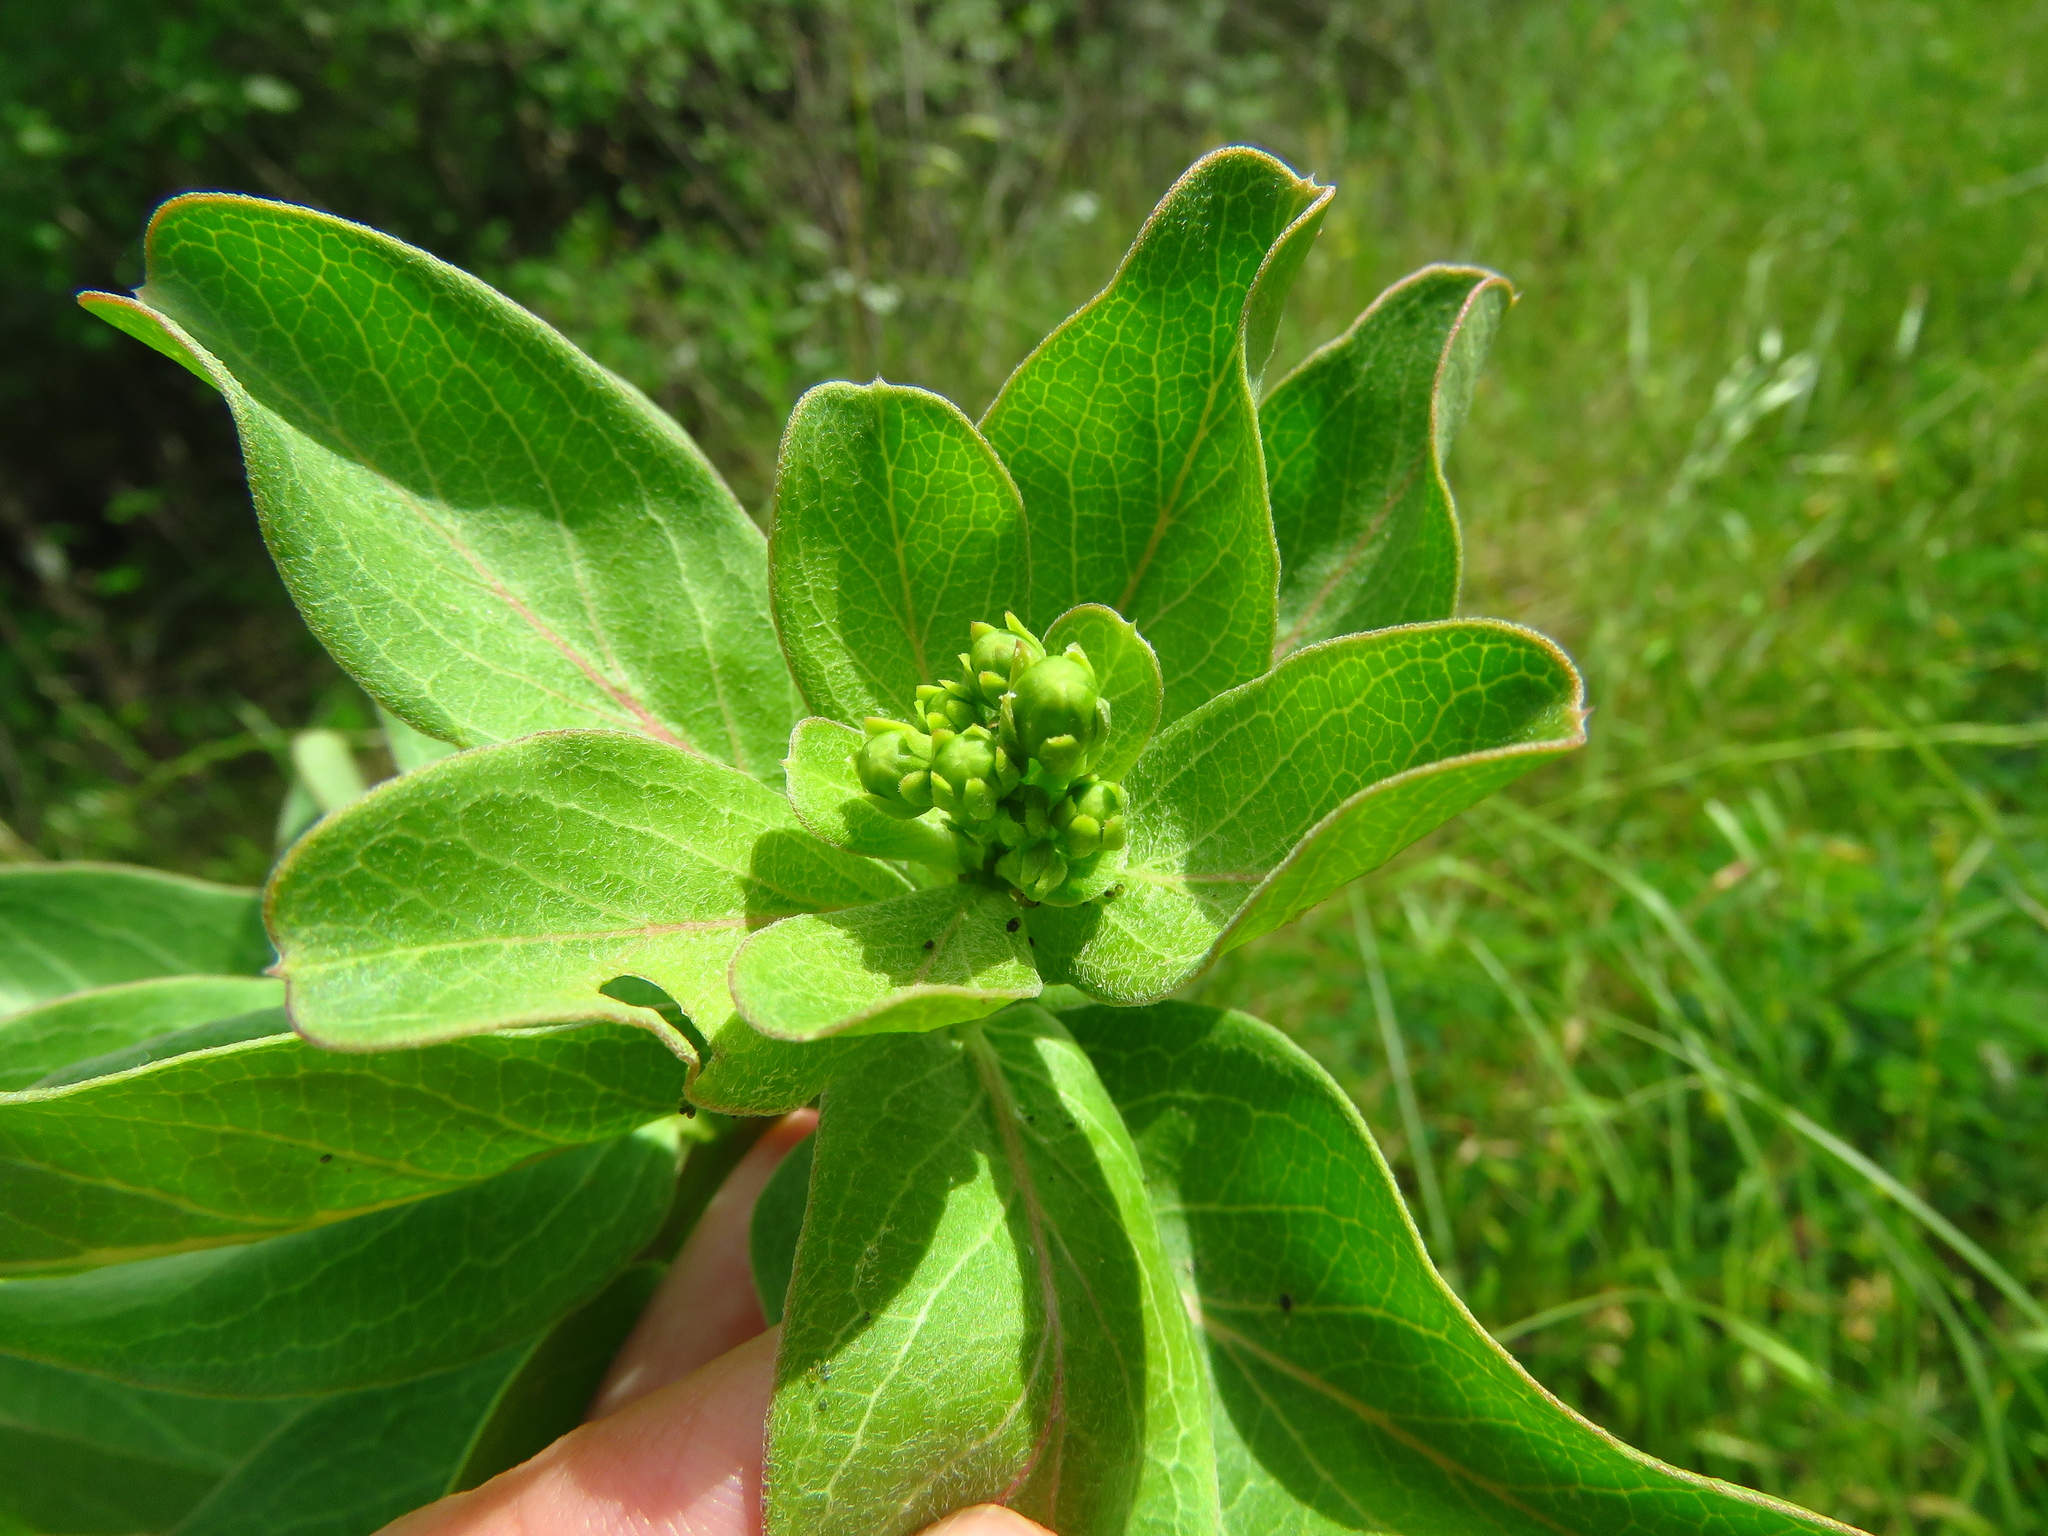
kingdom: Plantae
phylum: Tracheophyta
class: Magnoliopsida
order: Gentianales
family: Apocynaceae
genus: Asclepias
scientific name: Asclepias viridis
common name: Antelope-horns
